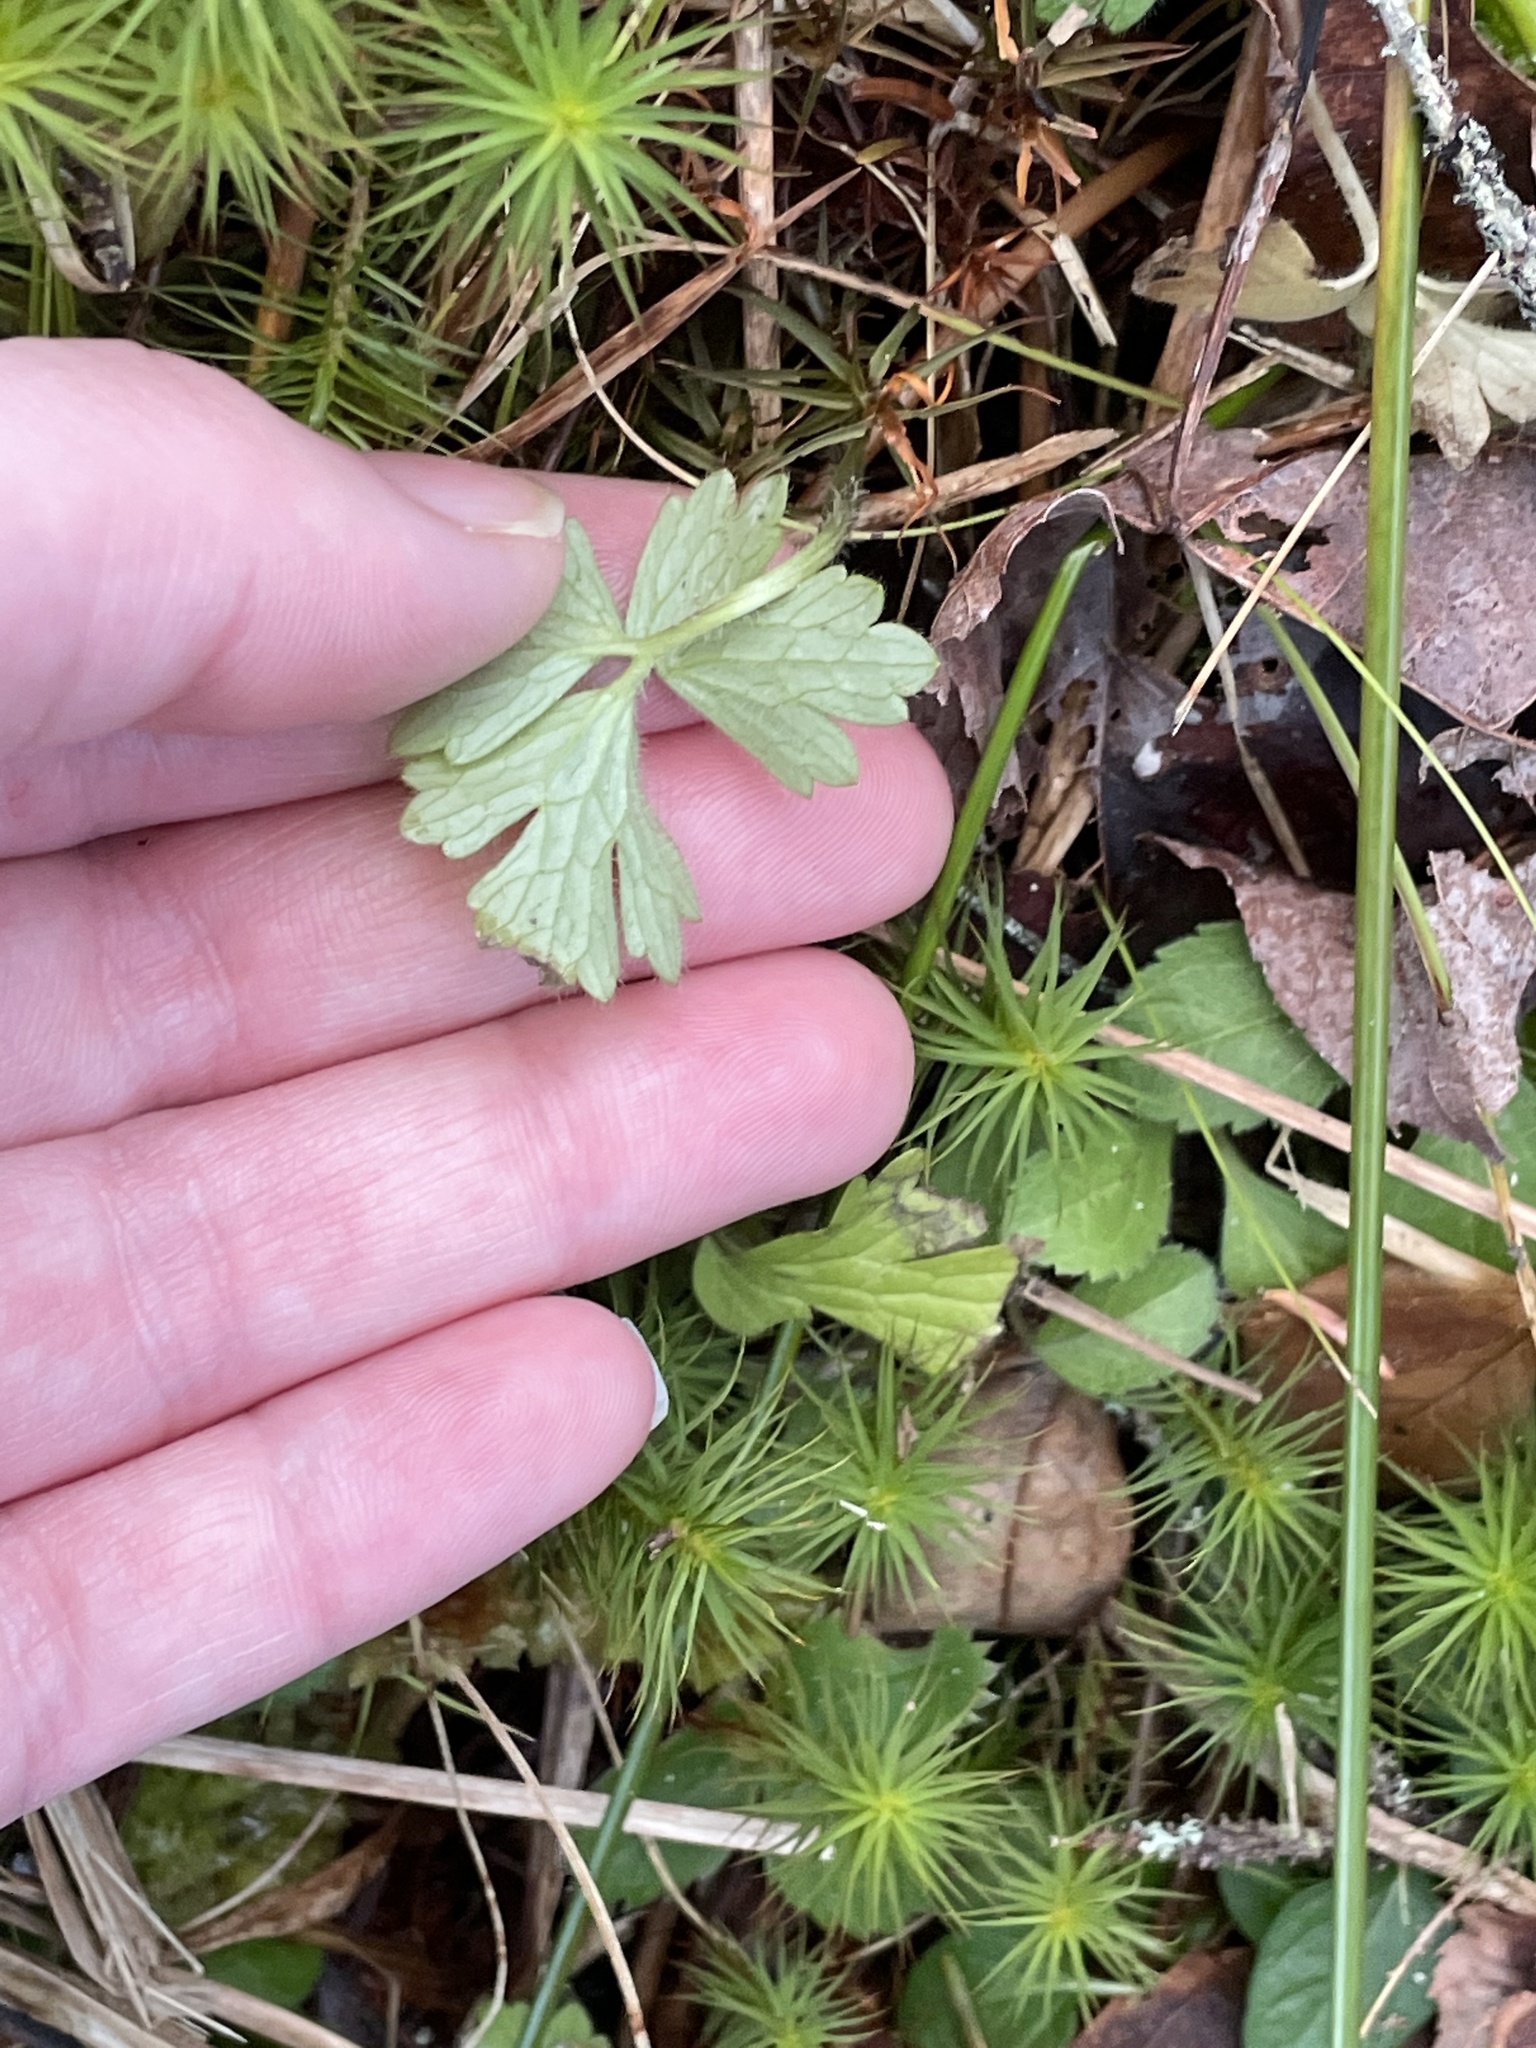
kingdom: Plantae
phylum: Tracheophyta
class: Magnoliopsida
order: Ranunculales
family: Ranunculaceae
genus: Ranunculus
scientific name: Ranunculus repens
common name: Creeping buttercup
